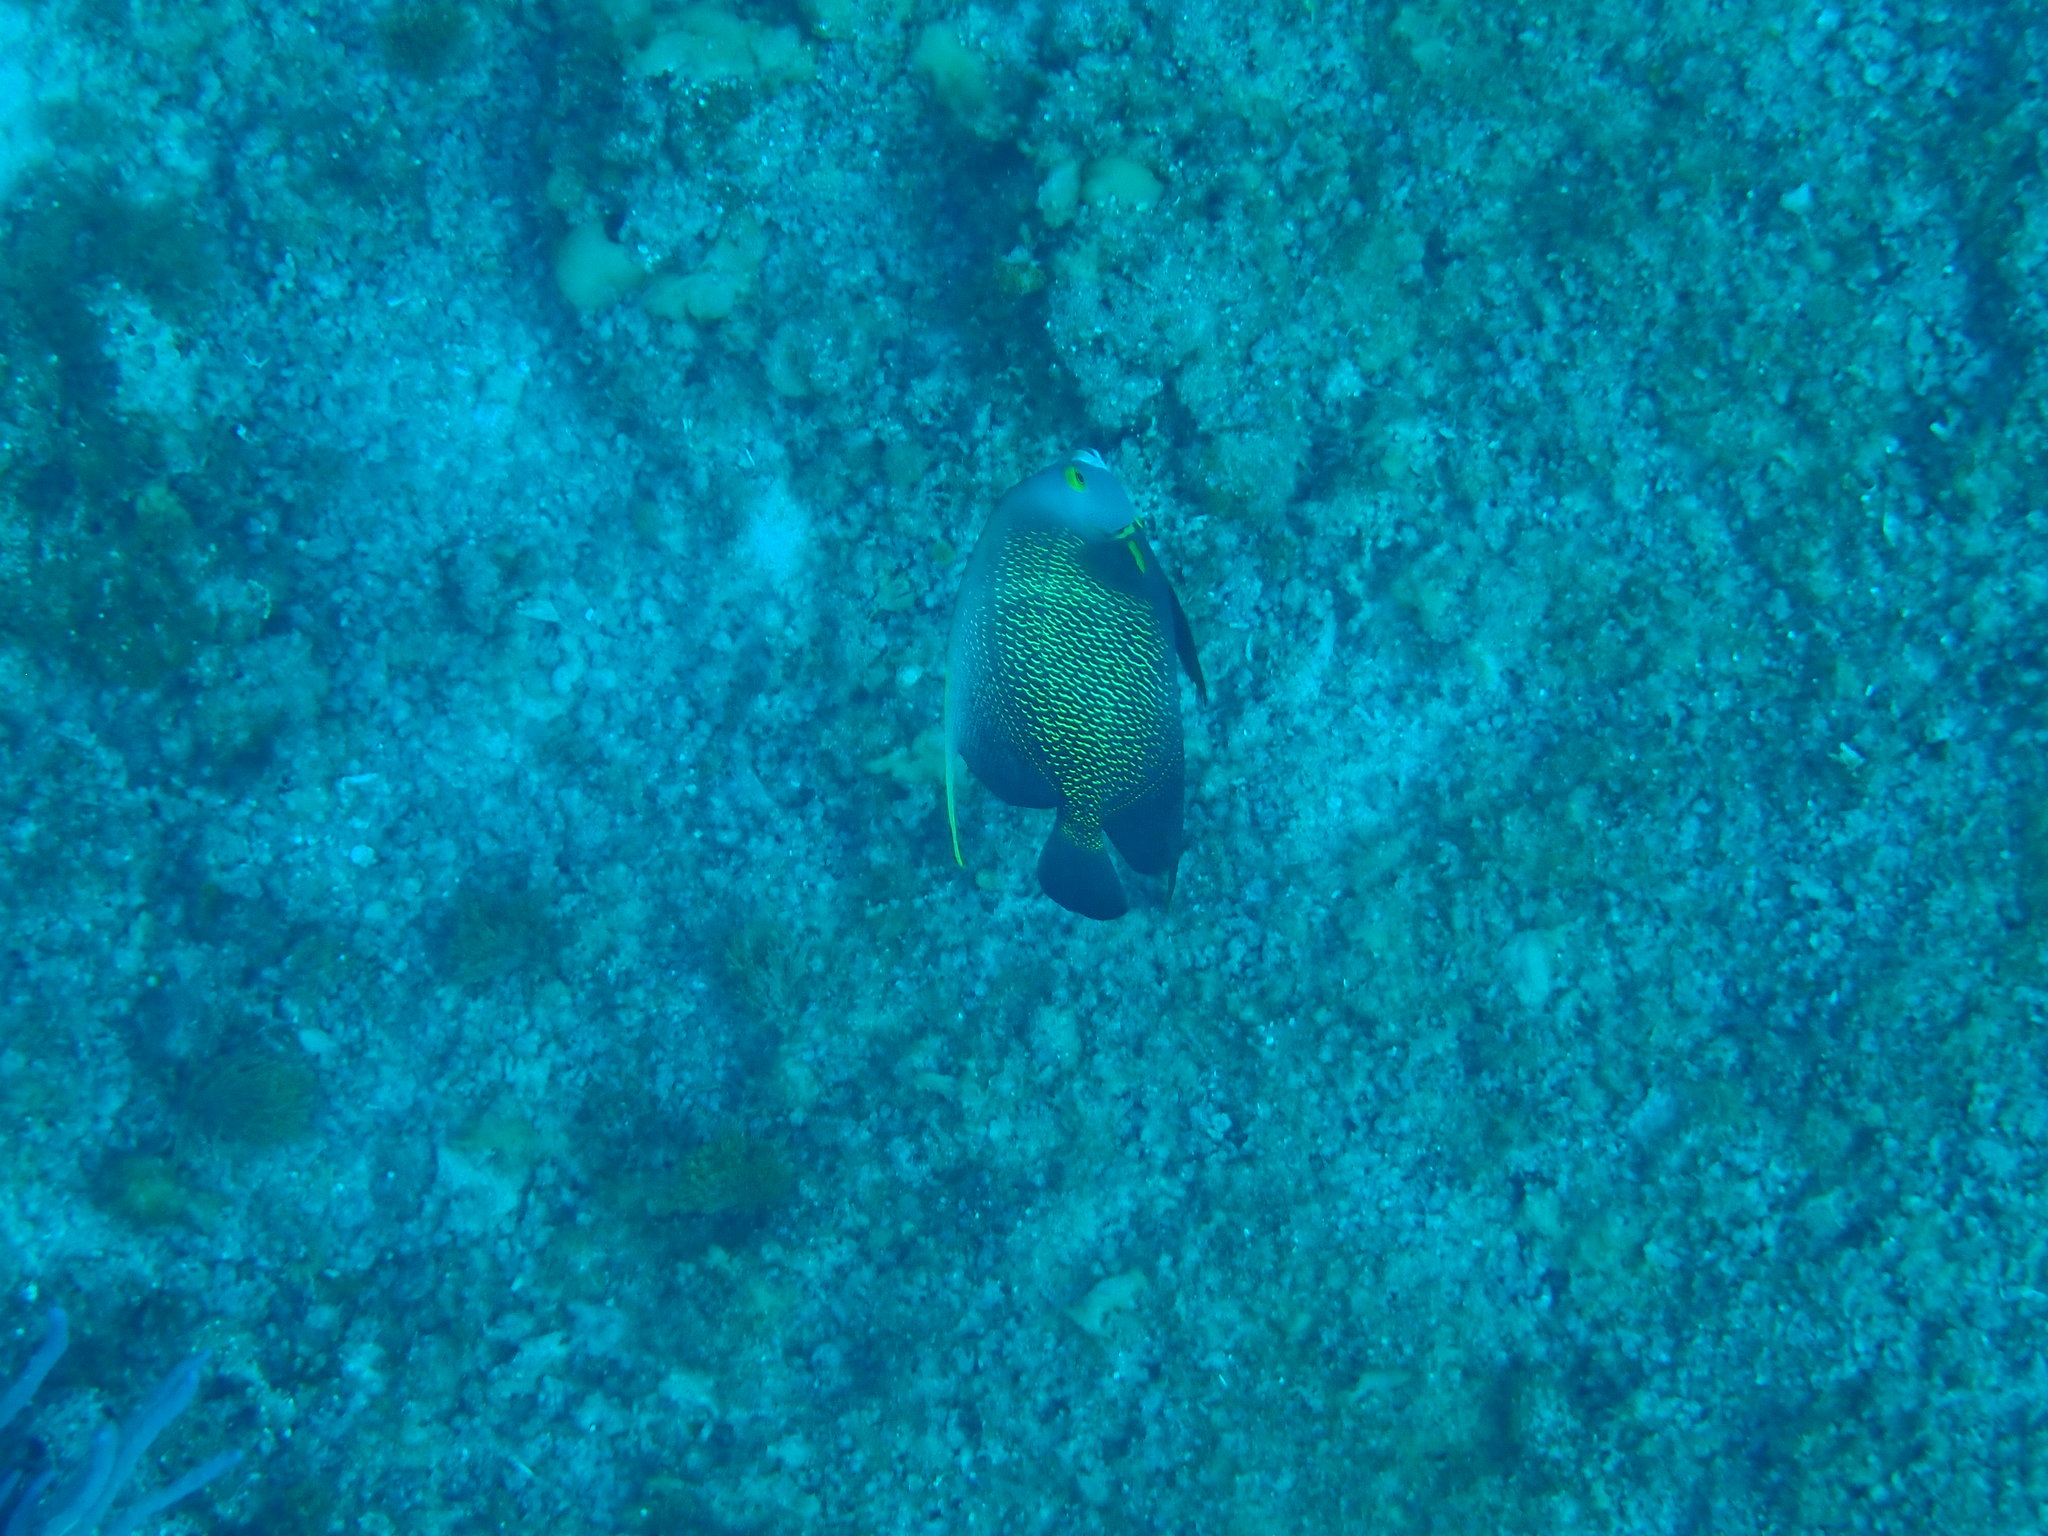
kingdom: Animalia
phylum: Chordata
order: Perciformes
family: Pomacanthidae
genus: Pomacanthus
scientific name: Pomacanthus paru
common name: French angelfish
